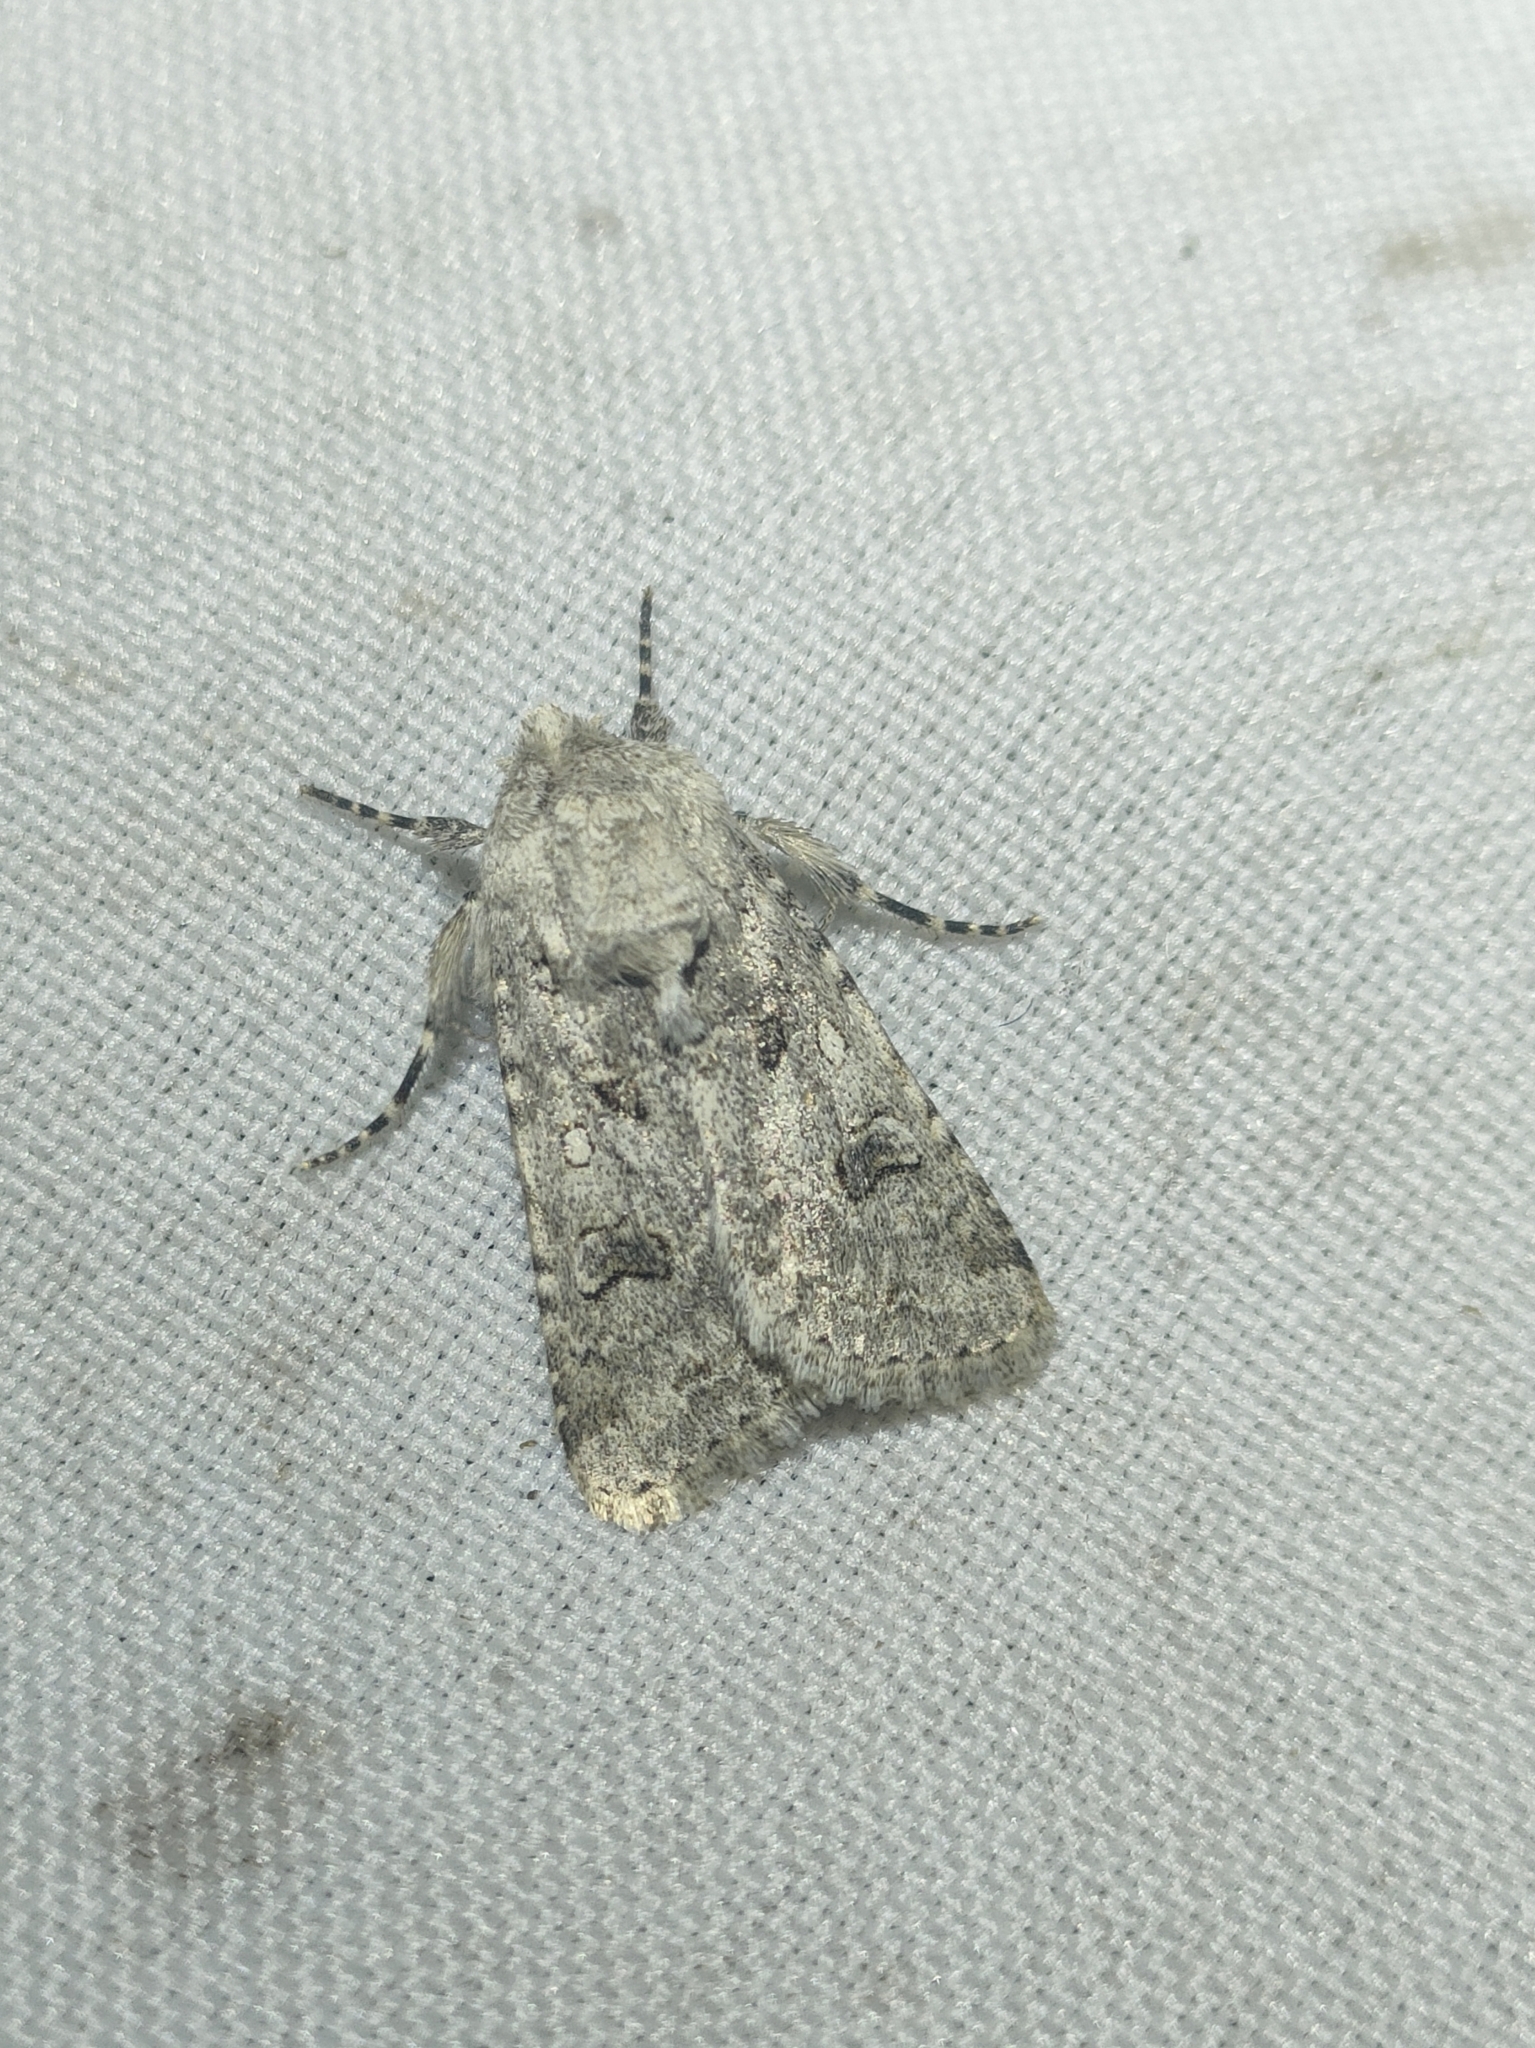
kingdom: Animalia
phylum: Arthropoda
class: Insecta
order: Lepidoptera
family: Noctuidae
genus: Anarta
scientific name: Anarta sodae
